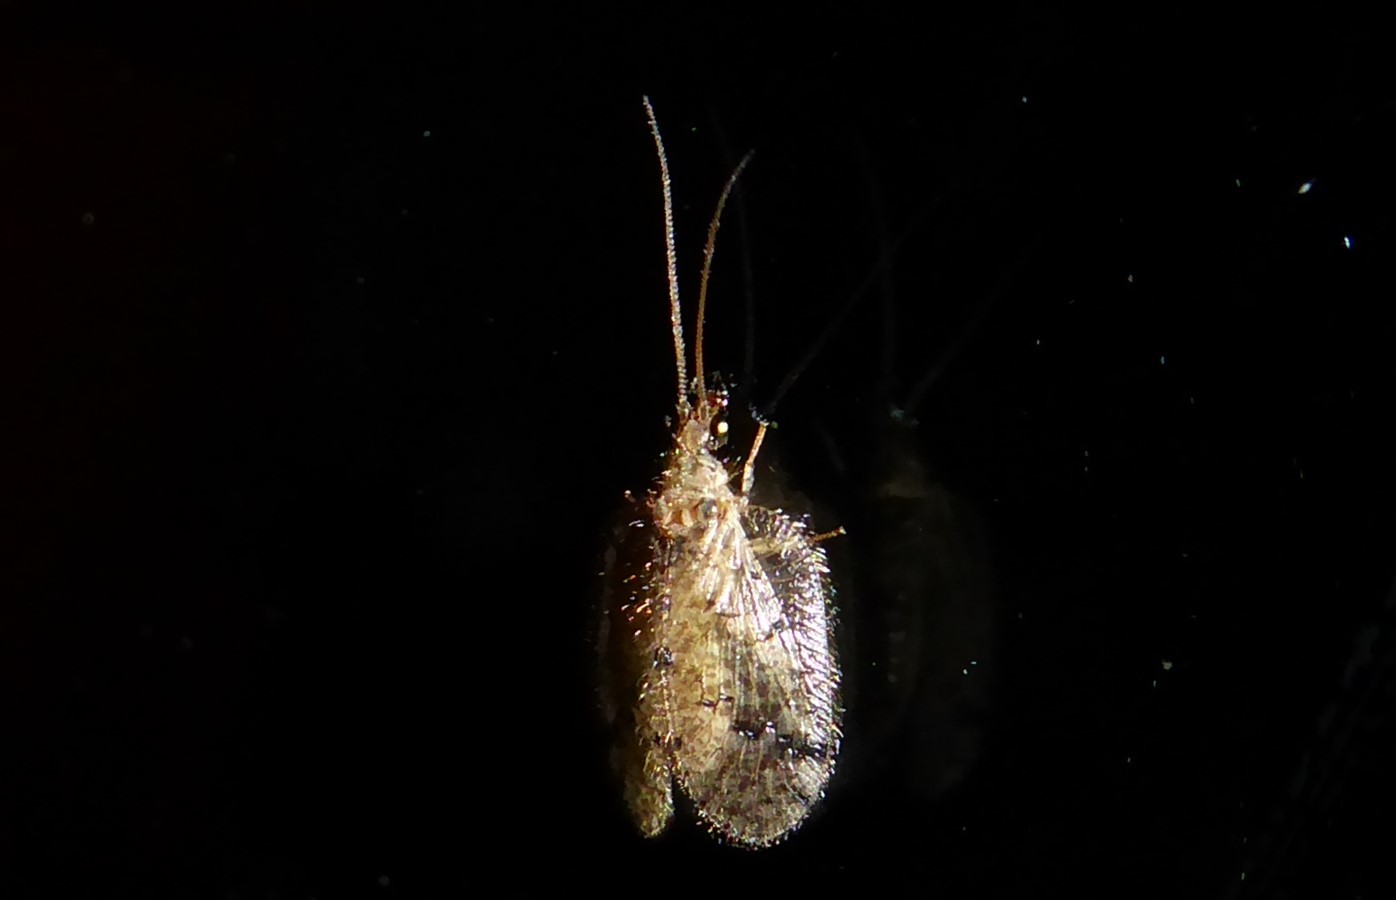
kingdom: Animalia
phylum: Arthropoda
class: Insecta
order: Neuroptera
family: Hemerobiidae
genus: Psectra
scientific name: Psectra nakaharai
